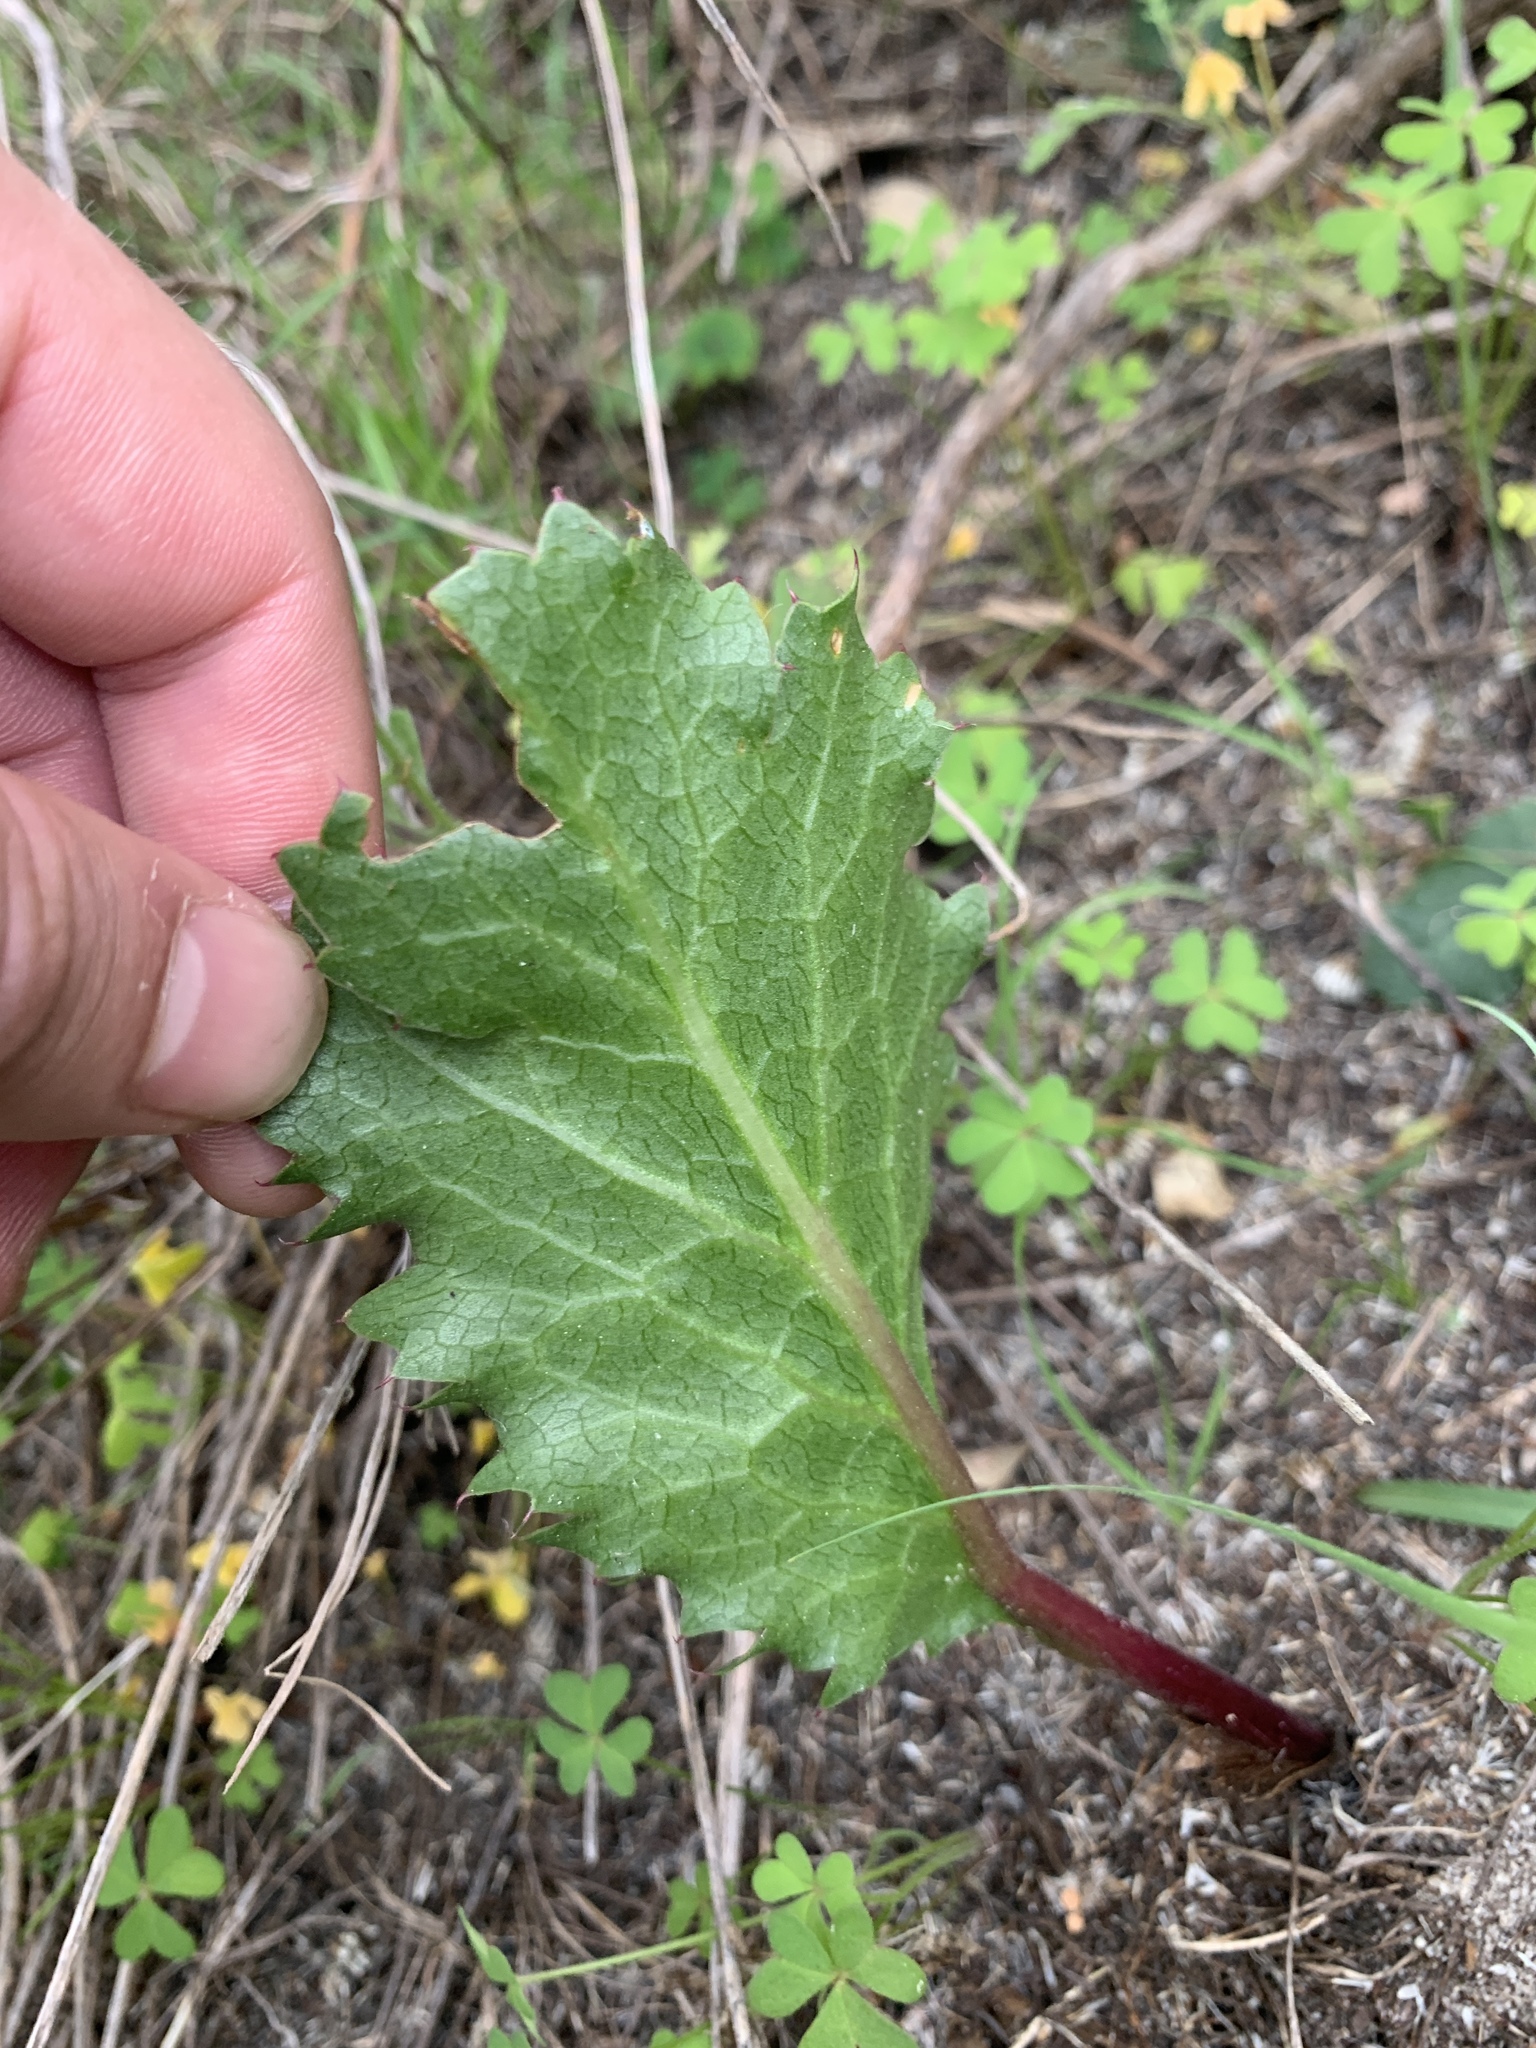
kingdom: Plantae
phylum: Tracheophyta
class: Magnoliopsida
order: Apiales
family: Apiaceae
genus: Lichtensteinia
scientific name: Lichtensteinia lacera
